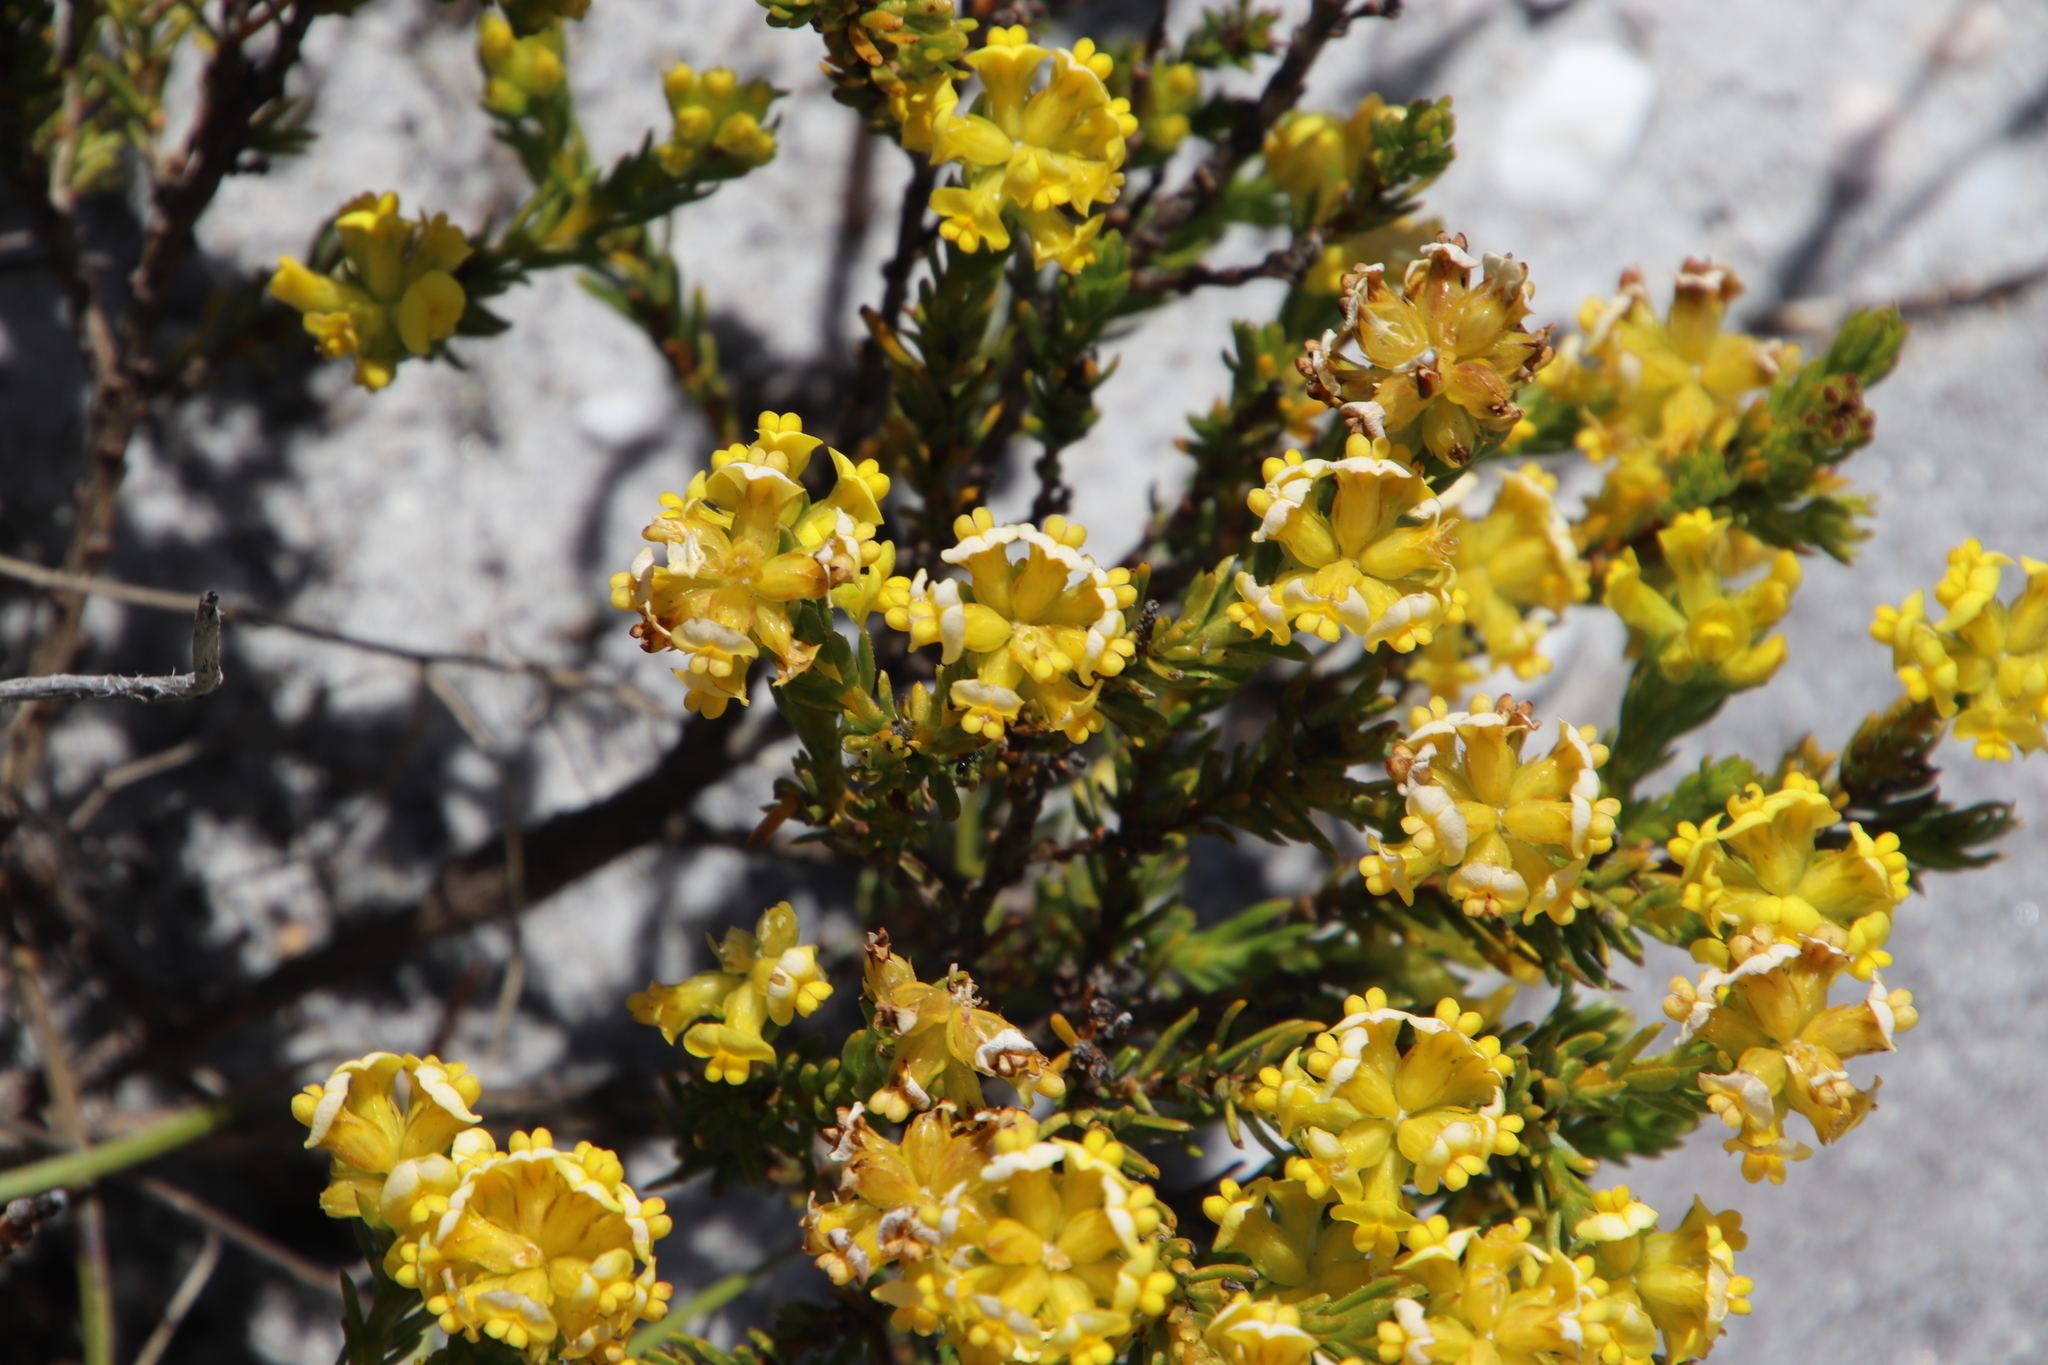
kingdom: Plantae
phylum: Tracheophyta
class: Magnoliopsida
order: Fabales
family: Fabaceae
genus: Aspalathus
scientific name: Aspalathus callosa
